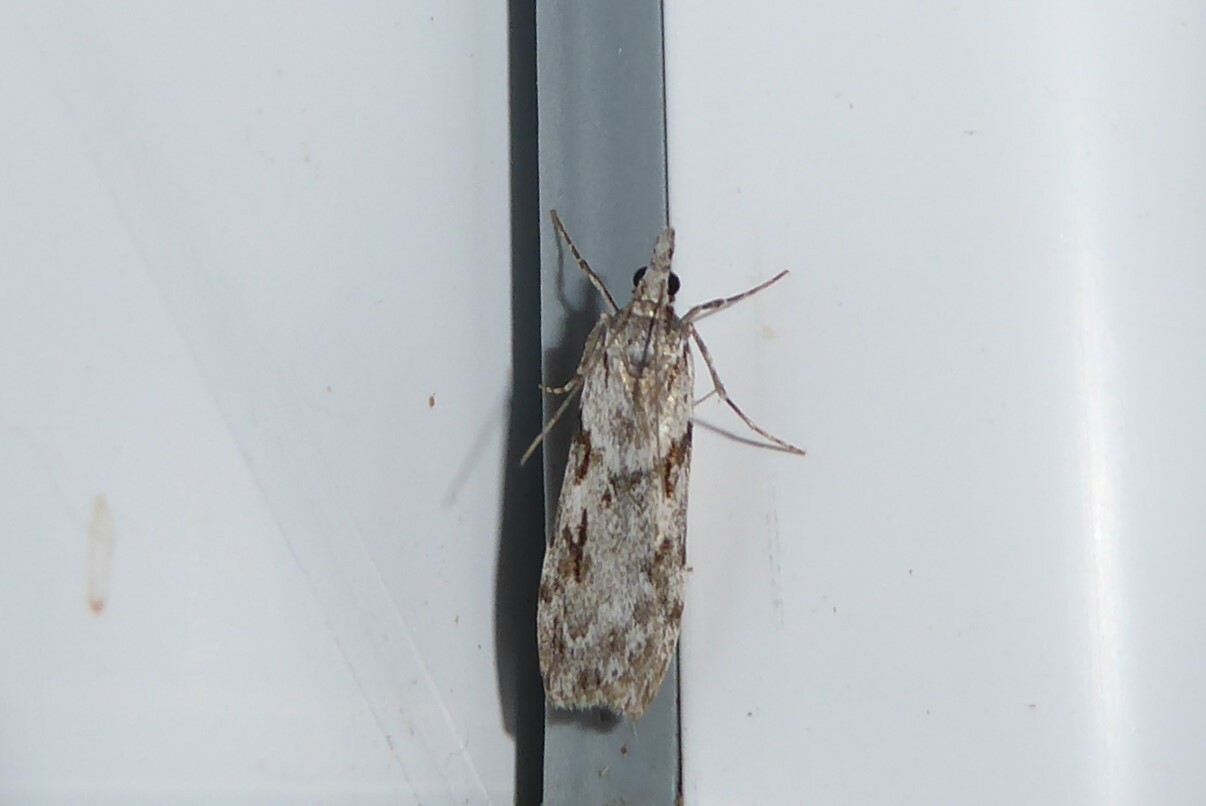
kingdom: Animalia
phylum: Arthropoda
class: Insecta
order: Lepidoptera
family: Crambidae
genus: Scoparia
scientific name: Scoparia halopis
